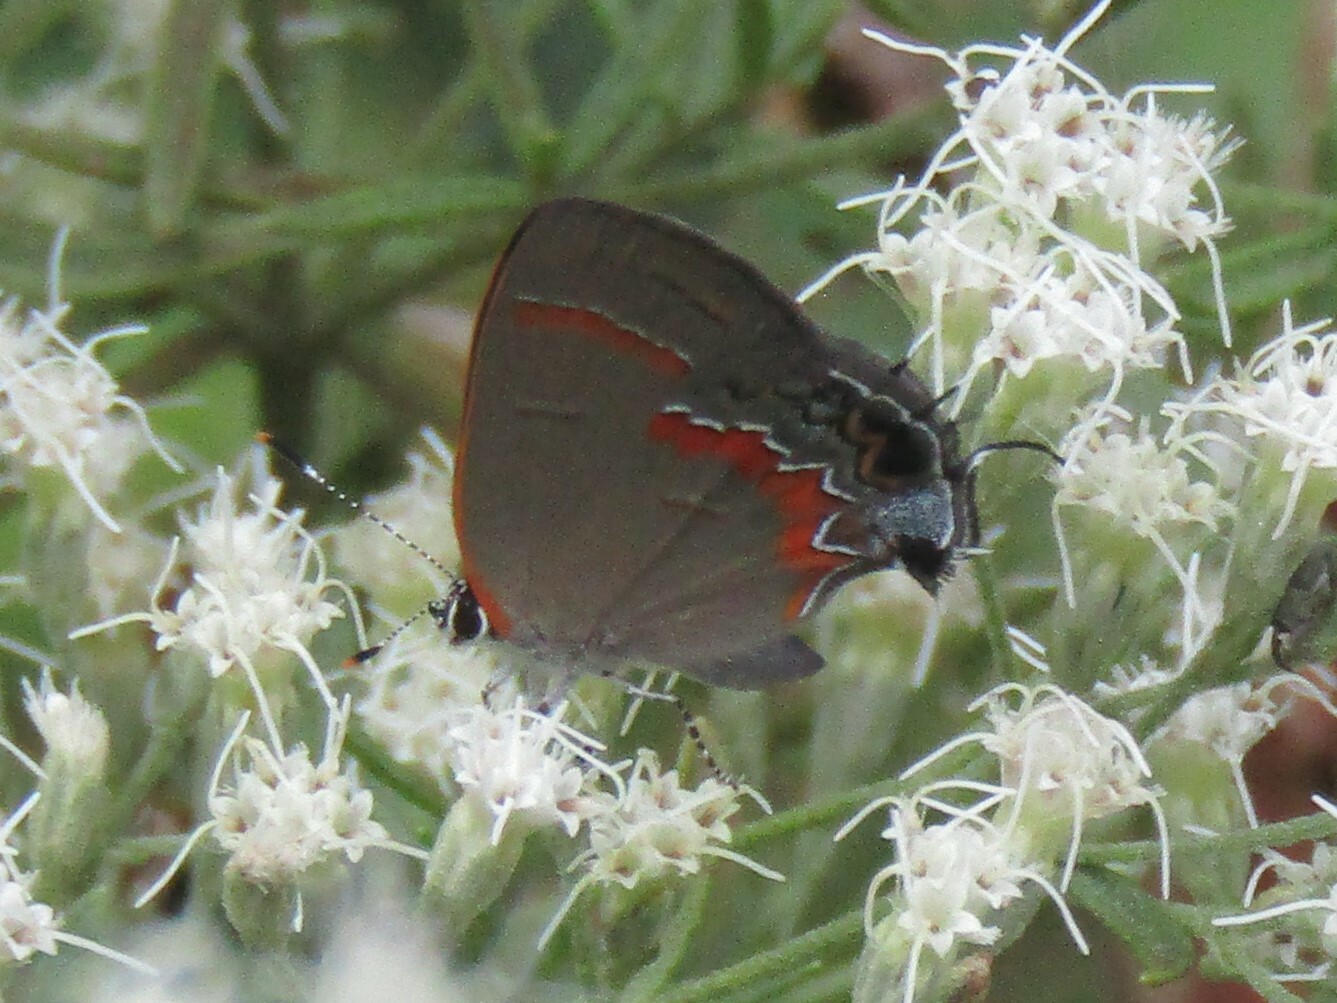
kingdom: Animalia
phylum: Arthropoda
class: Insecta
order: Lepidoptera
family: Lycaenidae
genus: Calycopis
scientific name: Calycopis cecrops
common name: Red-banded hairstreak
